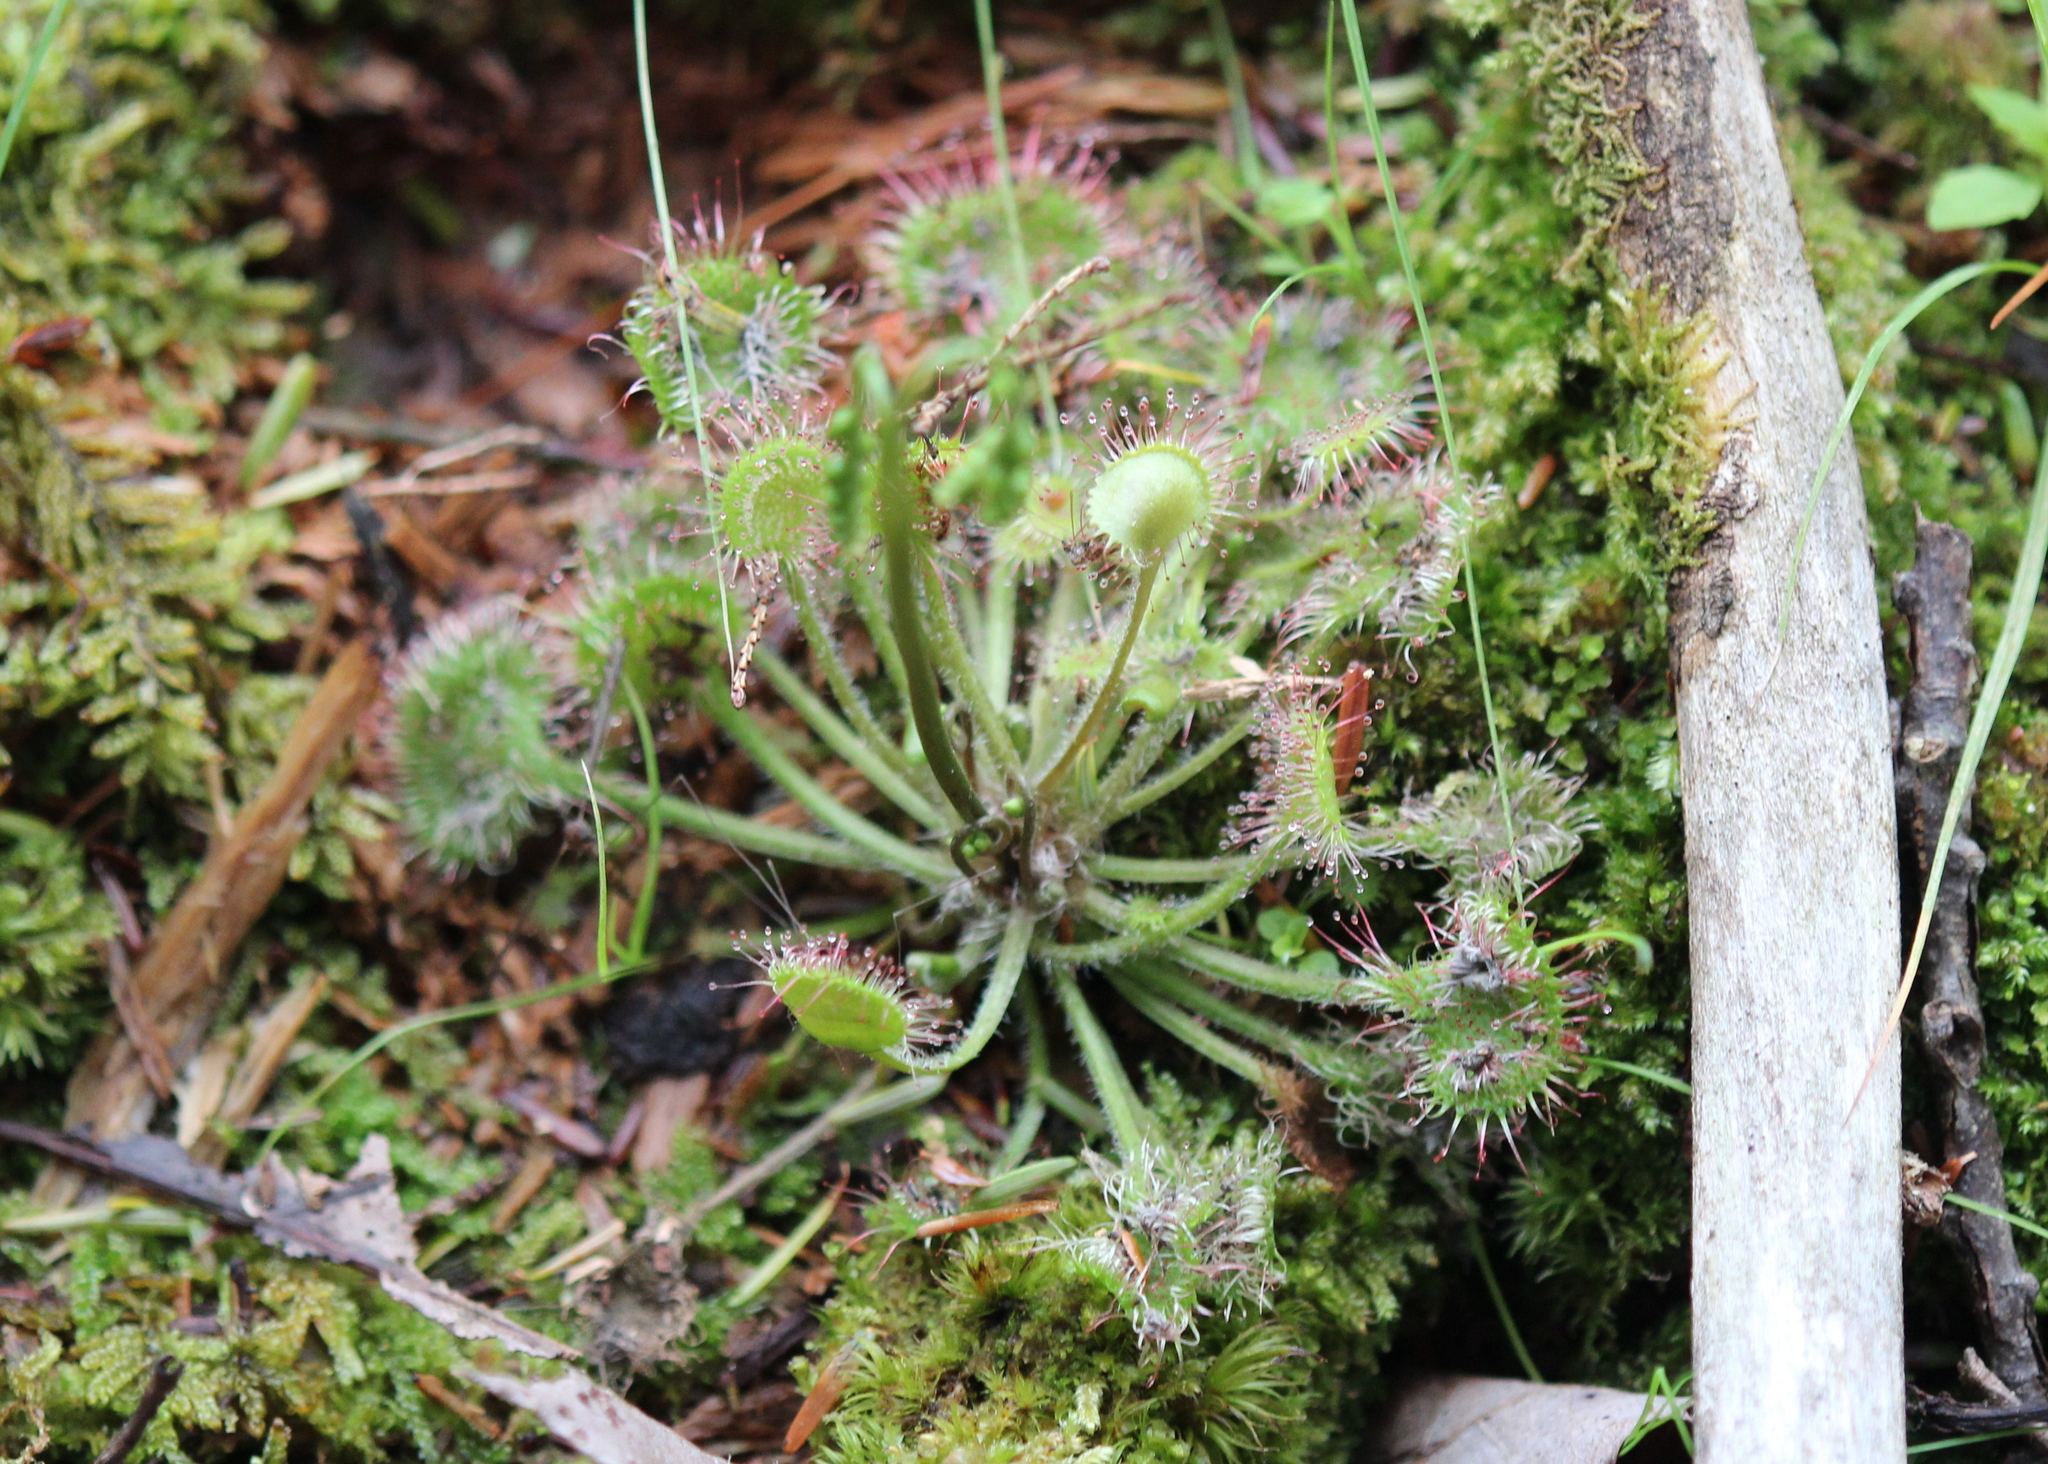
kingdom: Plantae
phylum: Tracheophyta
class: Magnoliopsida
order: Caryophyllales
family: Droseraceae
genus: Drosera
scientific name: Drosera rotundifolia
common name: Round-leaved sundew
